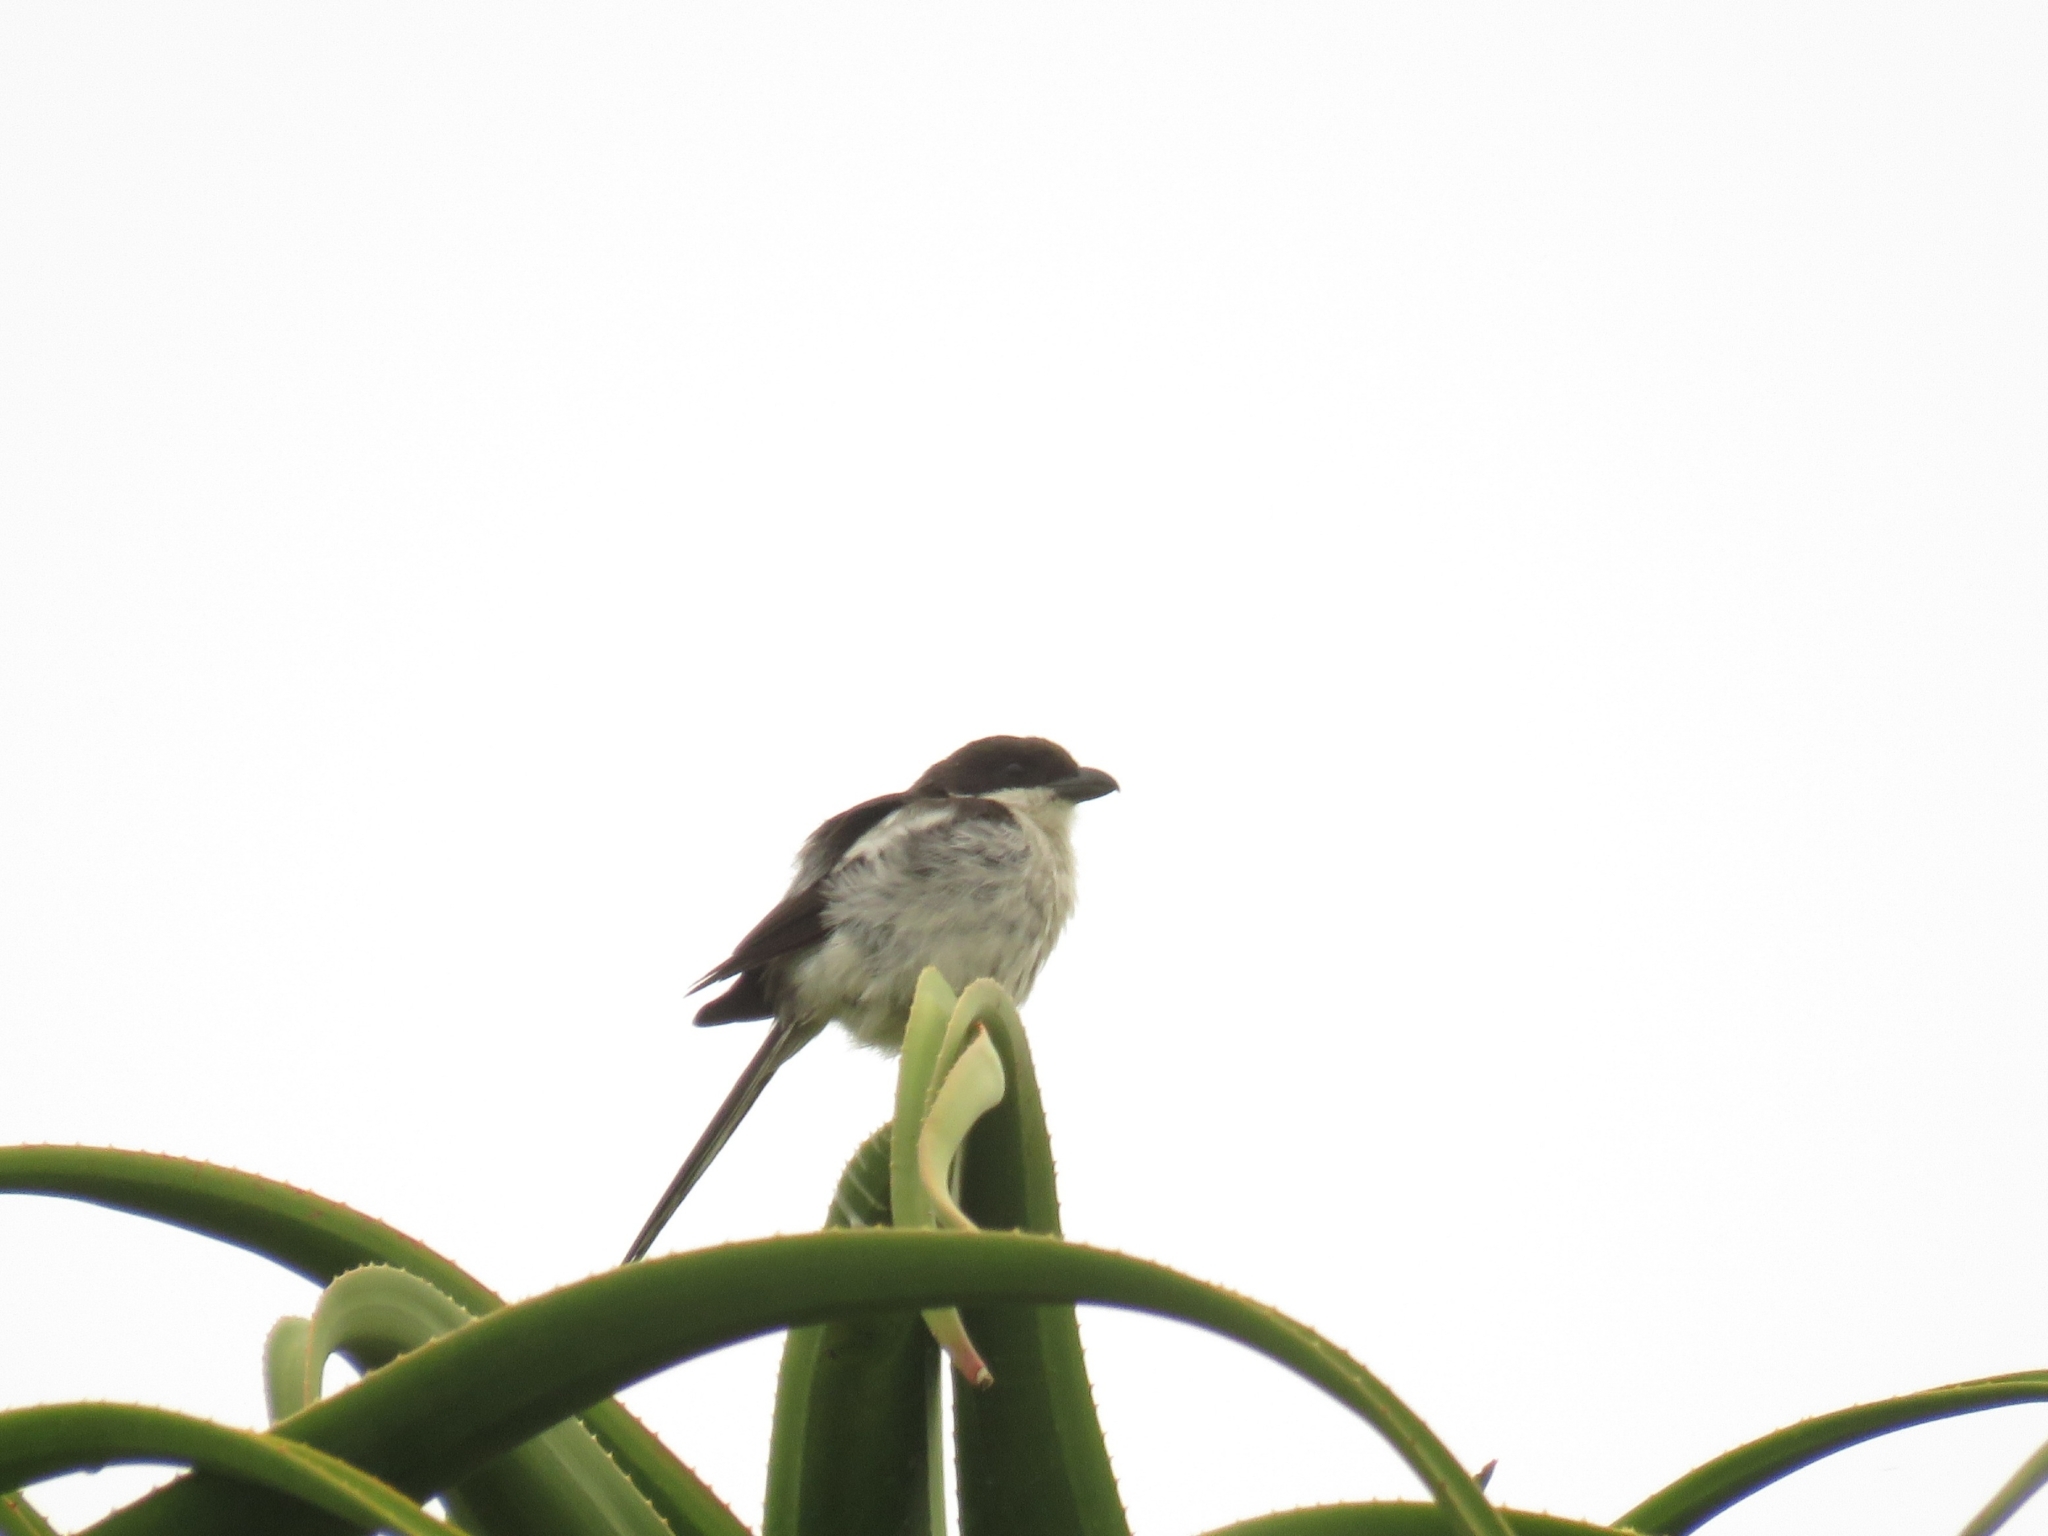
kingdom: Animalia
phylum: Chordata
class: Aves
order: Passeriformes
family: Laniidae
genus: Lanius
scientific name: Lanius collaris
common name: Southern fiscal
